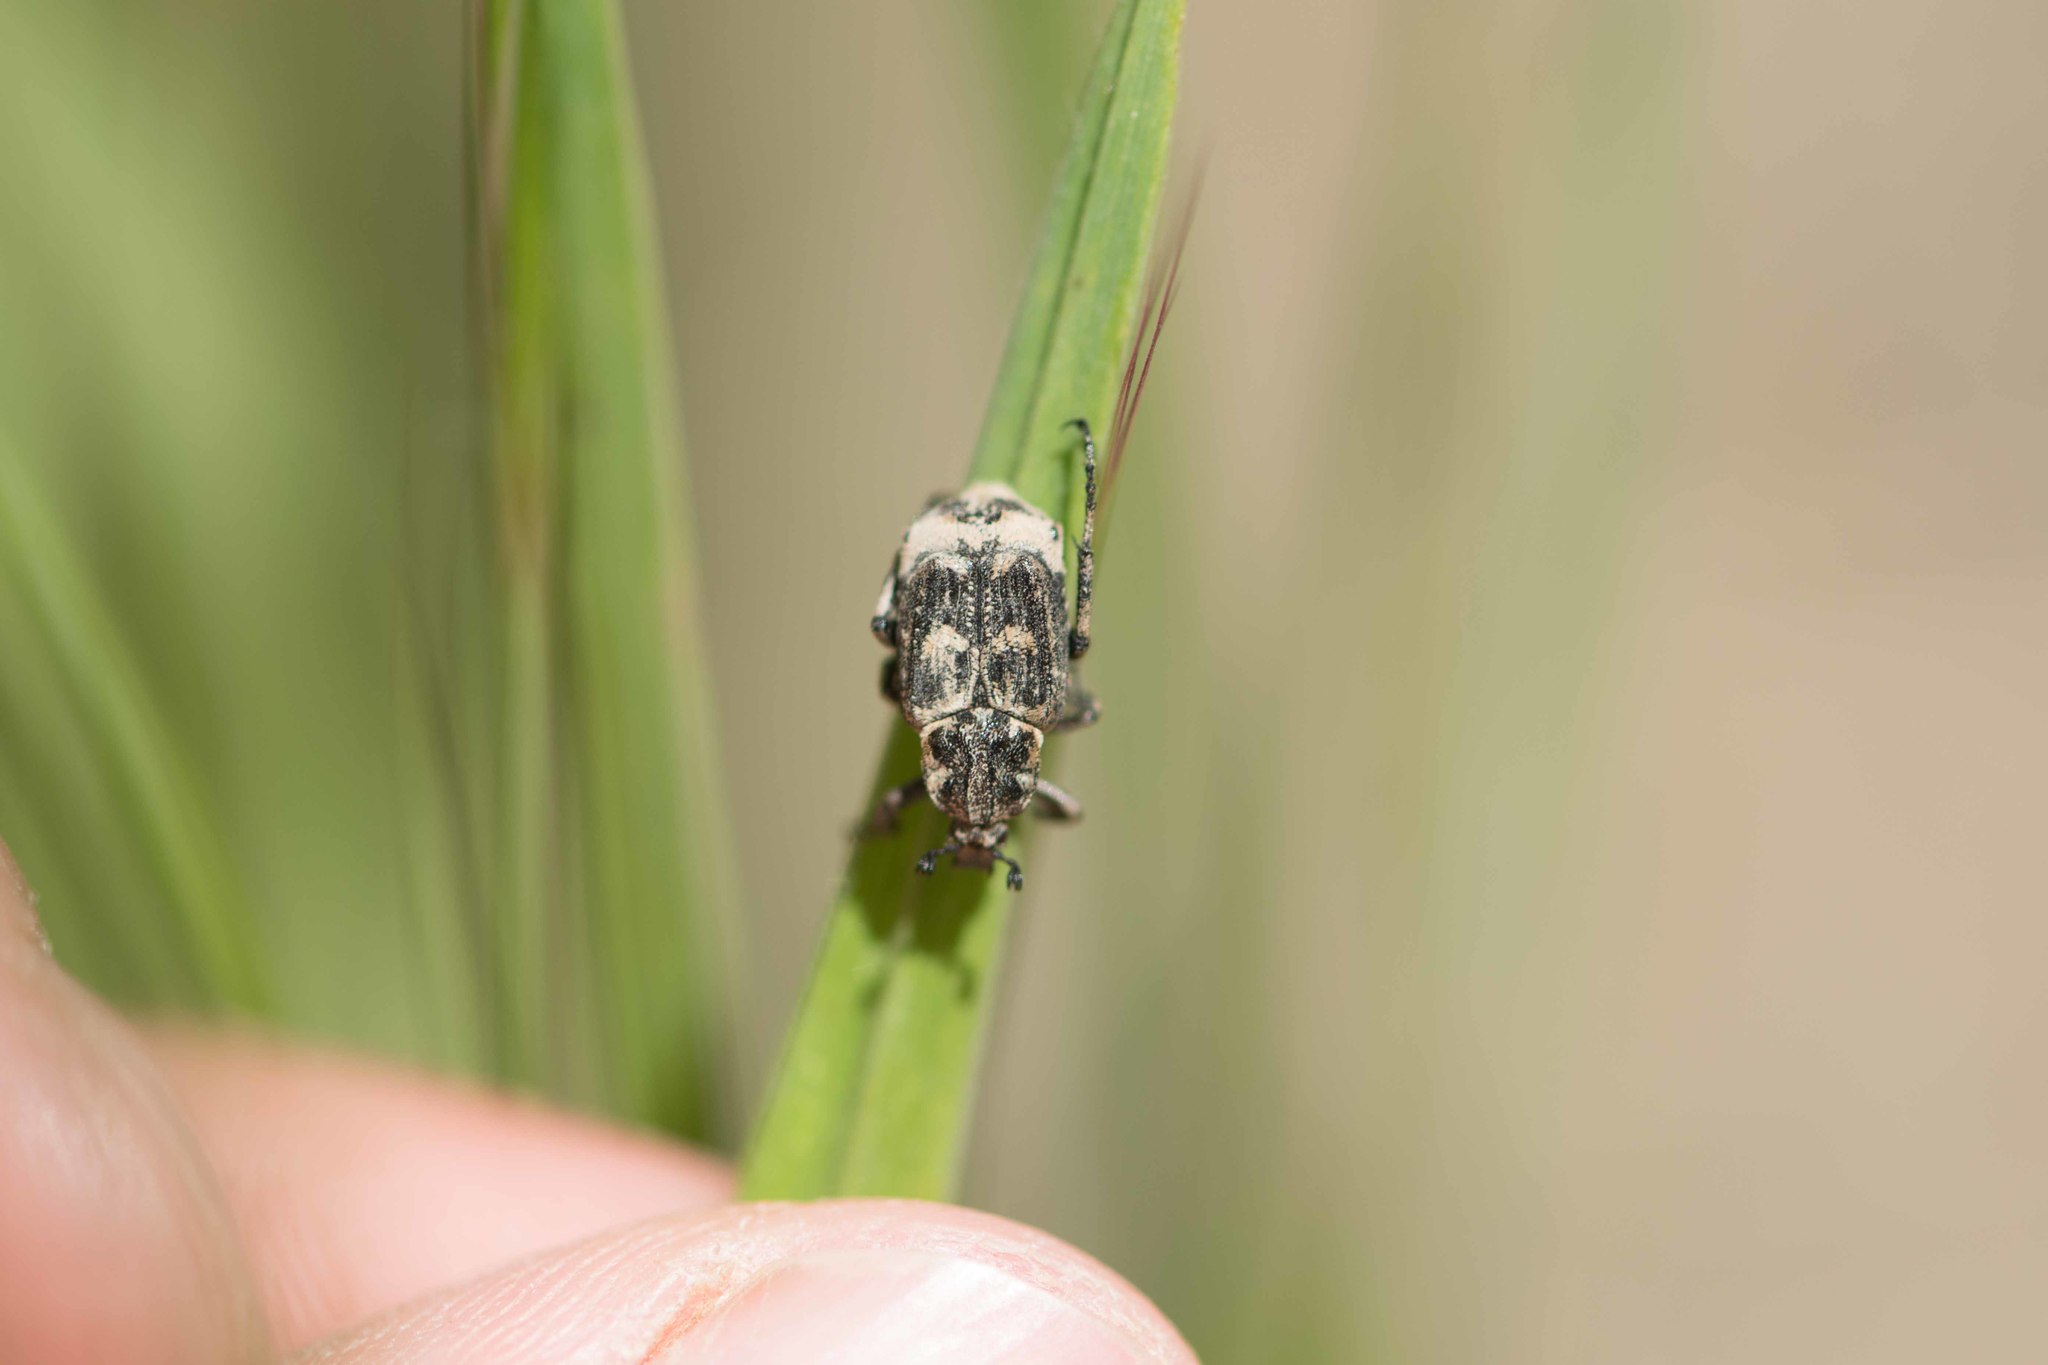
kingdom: Animalia
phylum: Arthropoda
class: Insecta
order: Coleoptera
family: Scarabaeidae
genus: Valgus
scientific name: Valgus hemipterus
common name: Bug flower chafer
